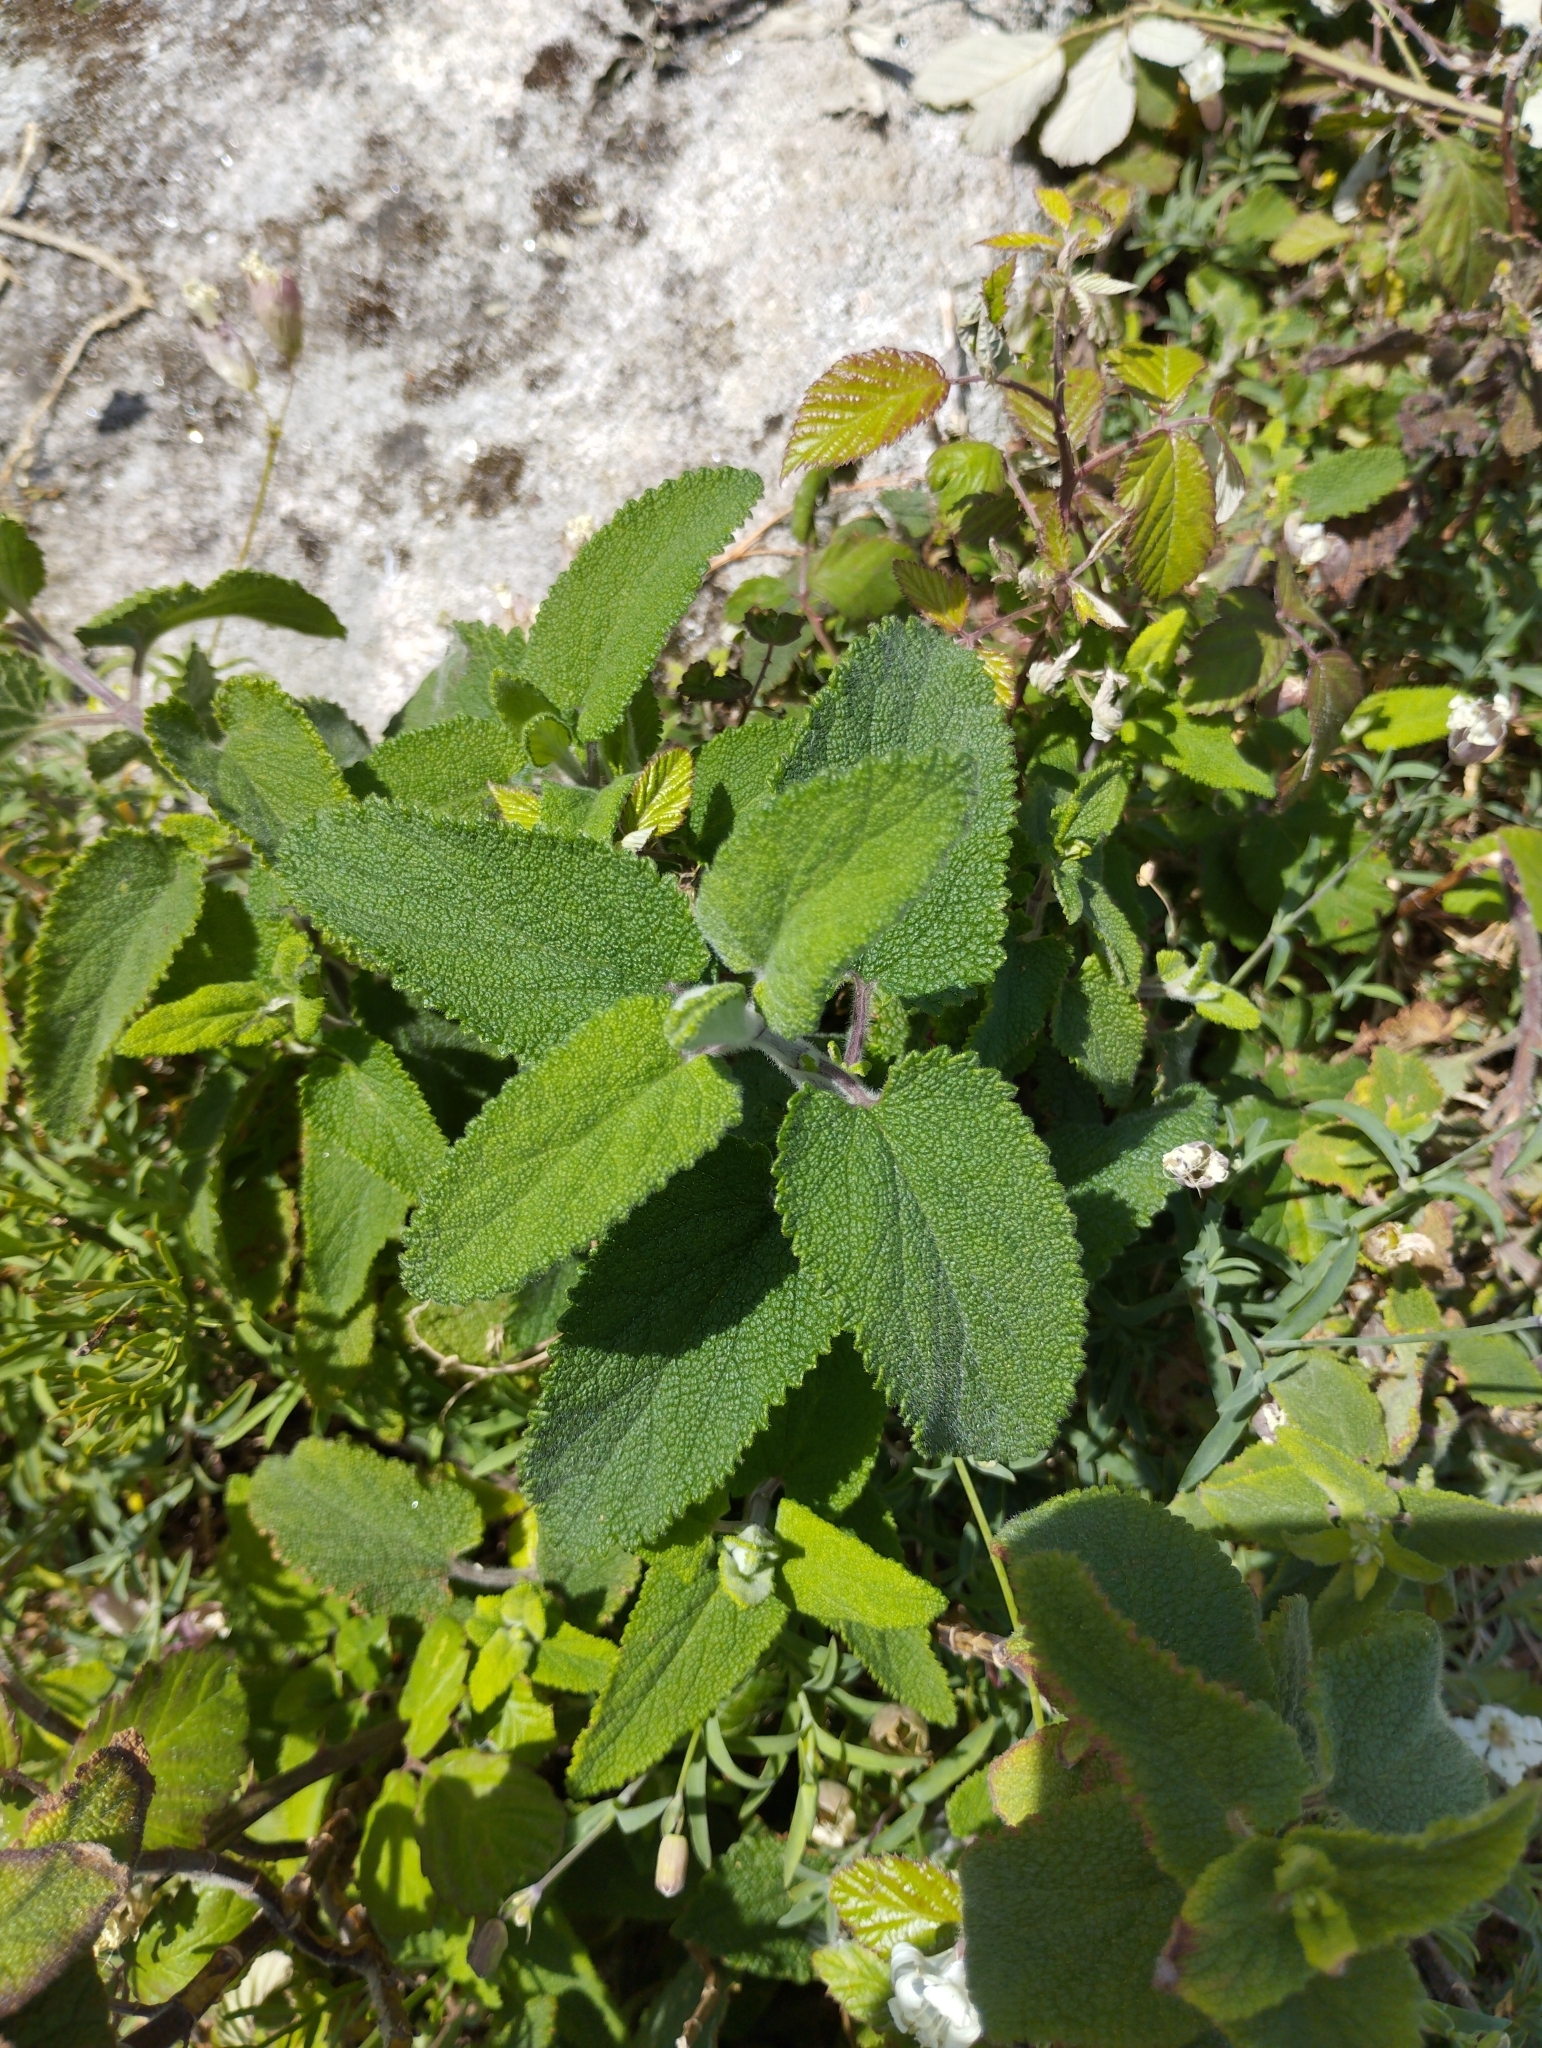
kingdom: Plantae
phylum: Tracheophyta
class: Magnoliopsida
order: Lamiales
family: Lamiaceae
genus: Teucrium
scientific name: Teucrium scorodonia
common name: Woodland germander
